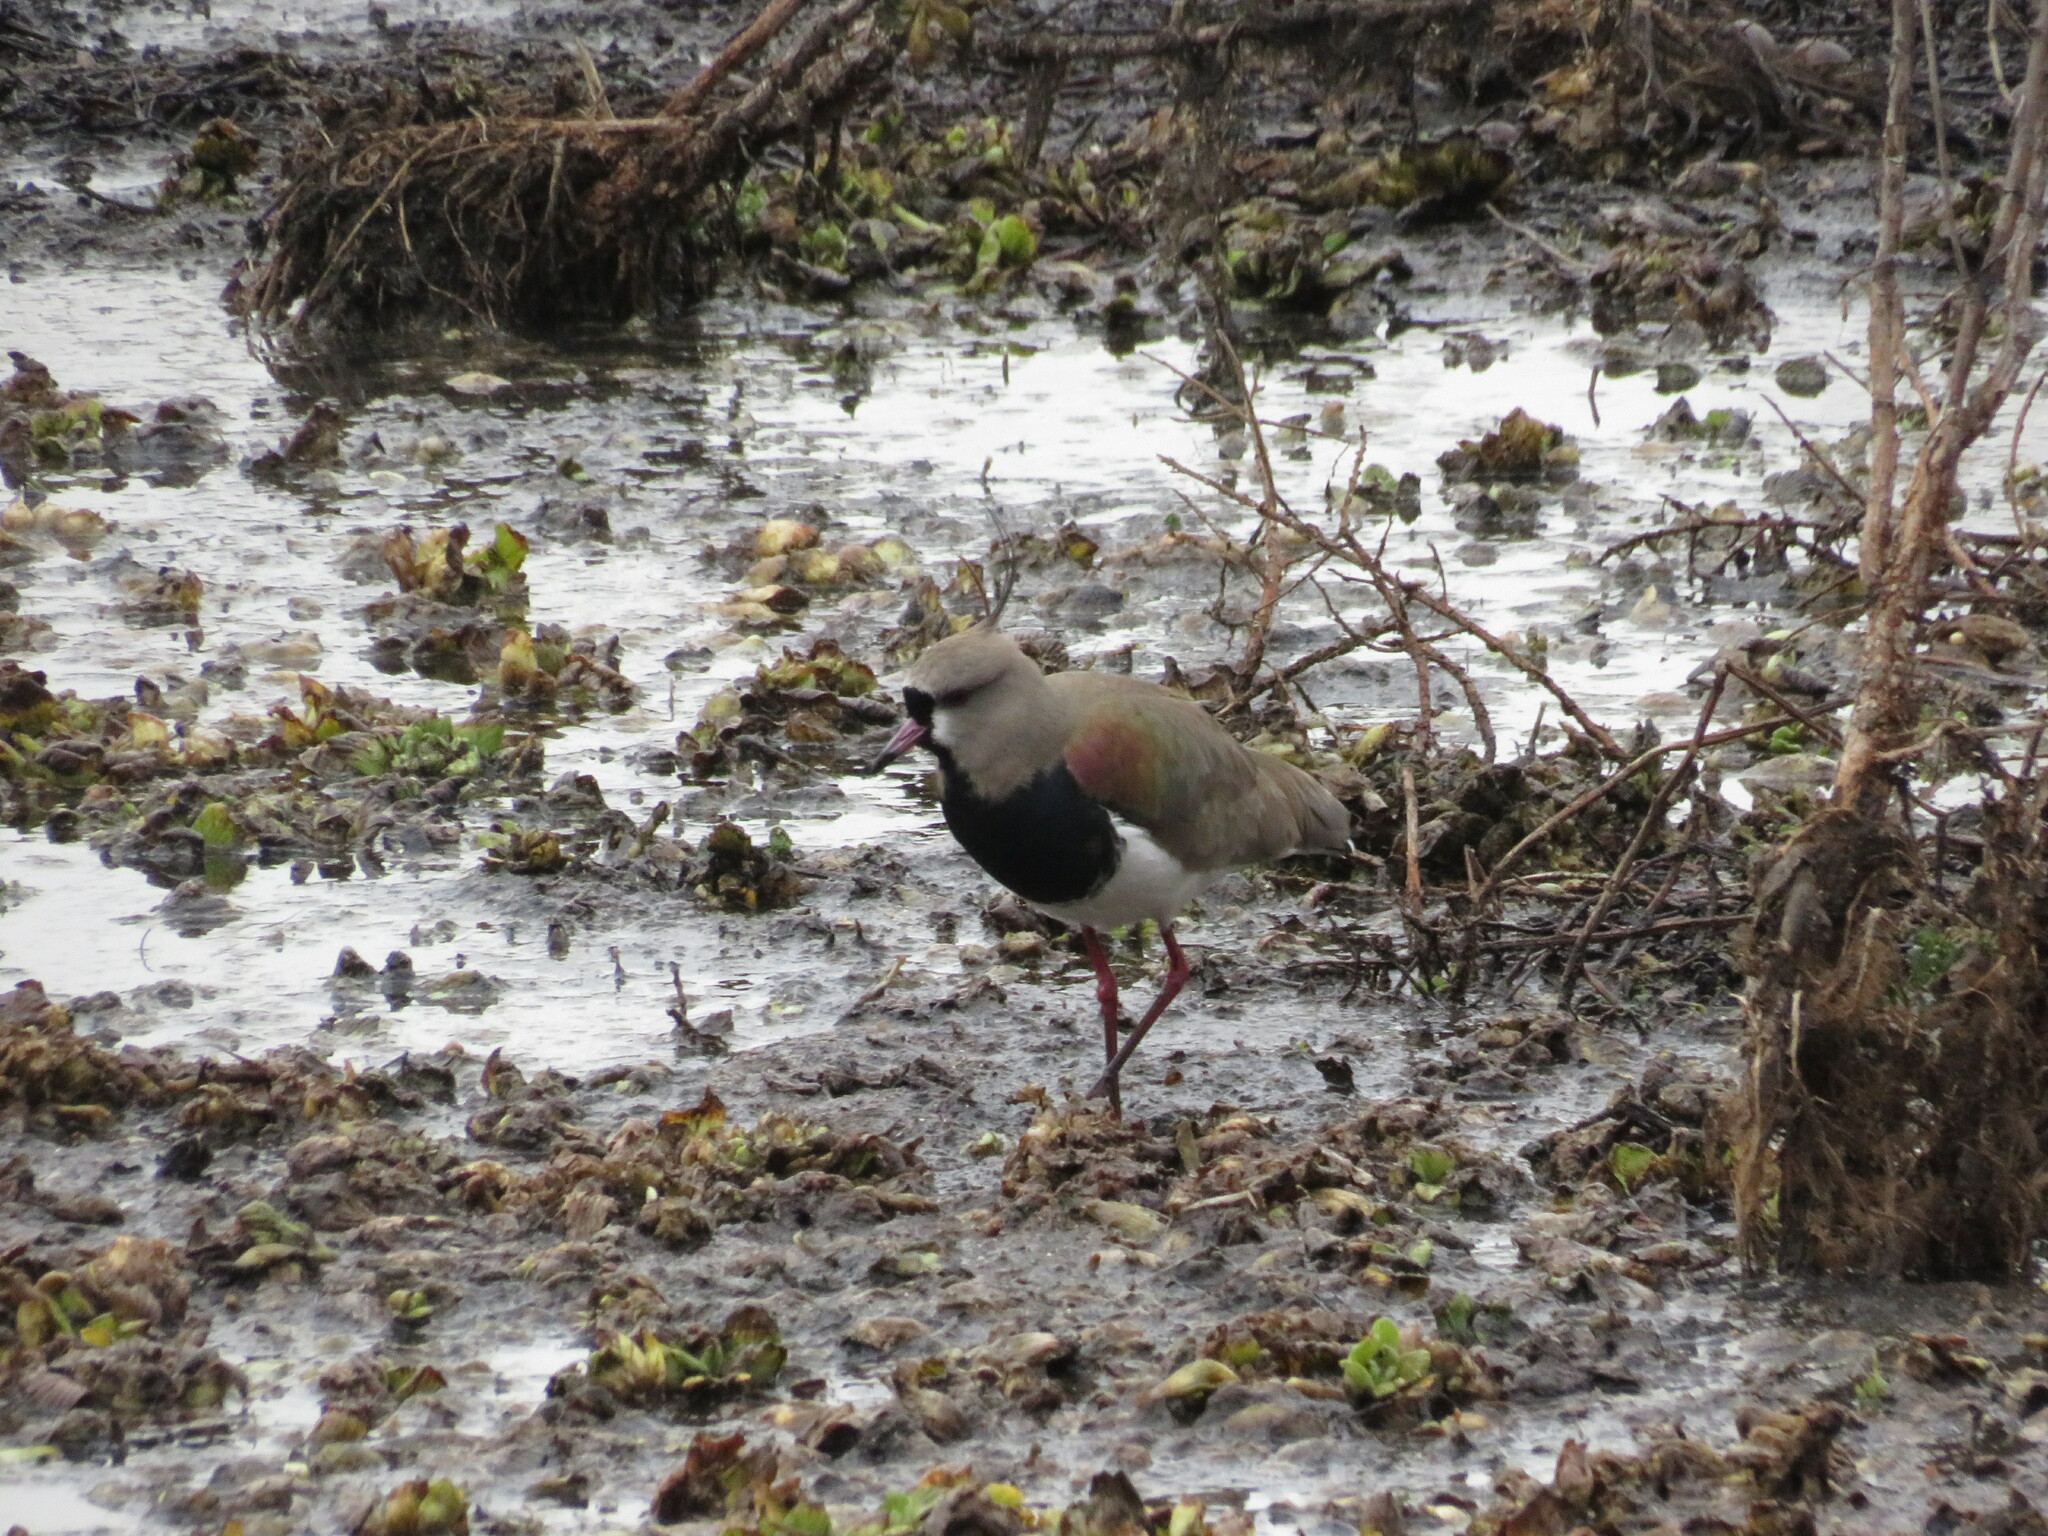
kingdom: Animalia
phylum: Chordata
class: Aves
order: Charadriiformes
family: Charadriidae
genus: Vanellus
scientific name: Vanellus chilensis
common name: Southern lapwing
